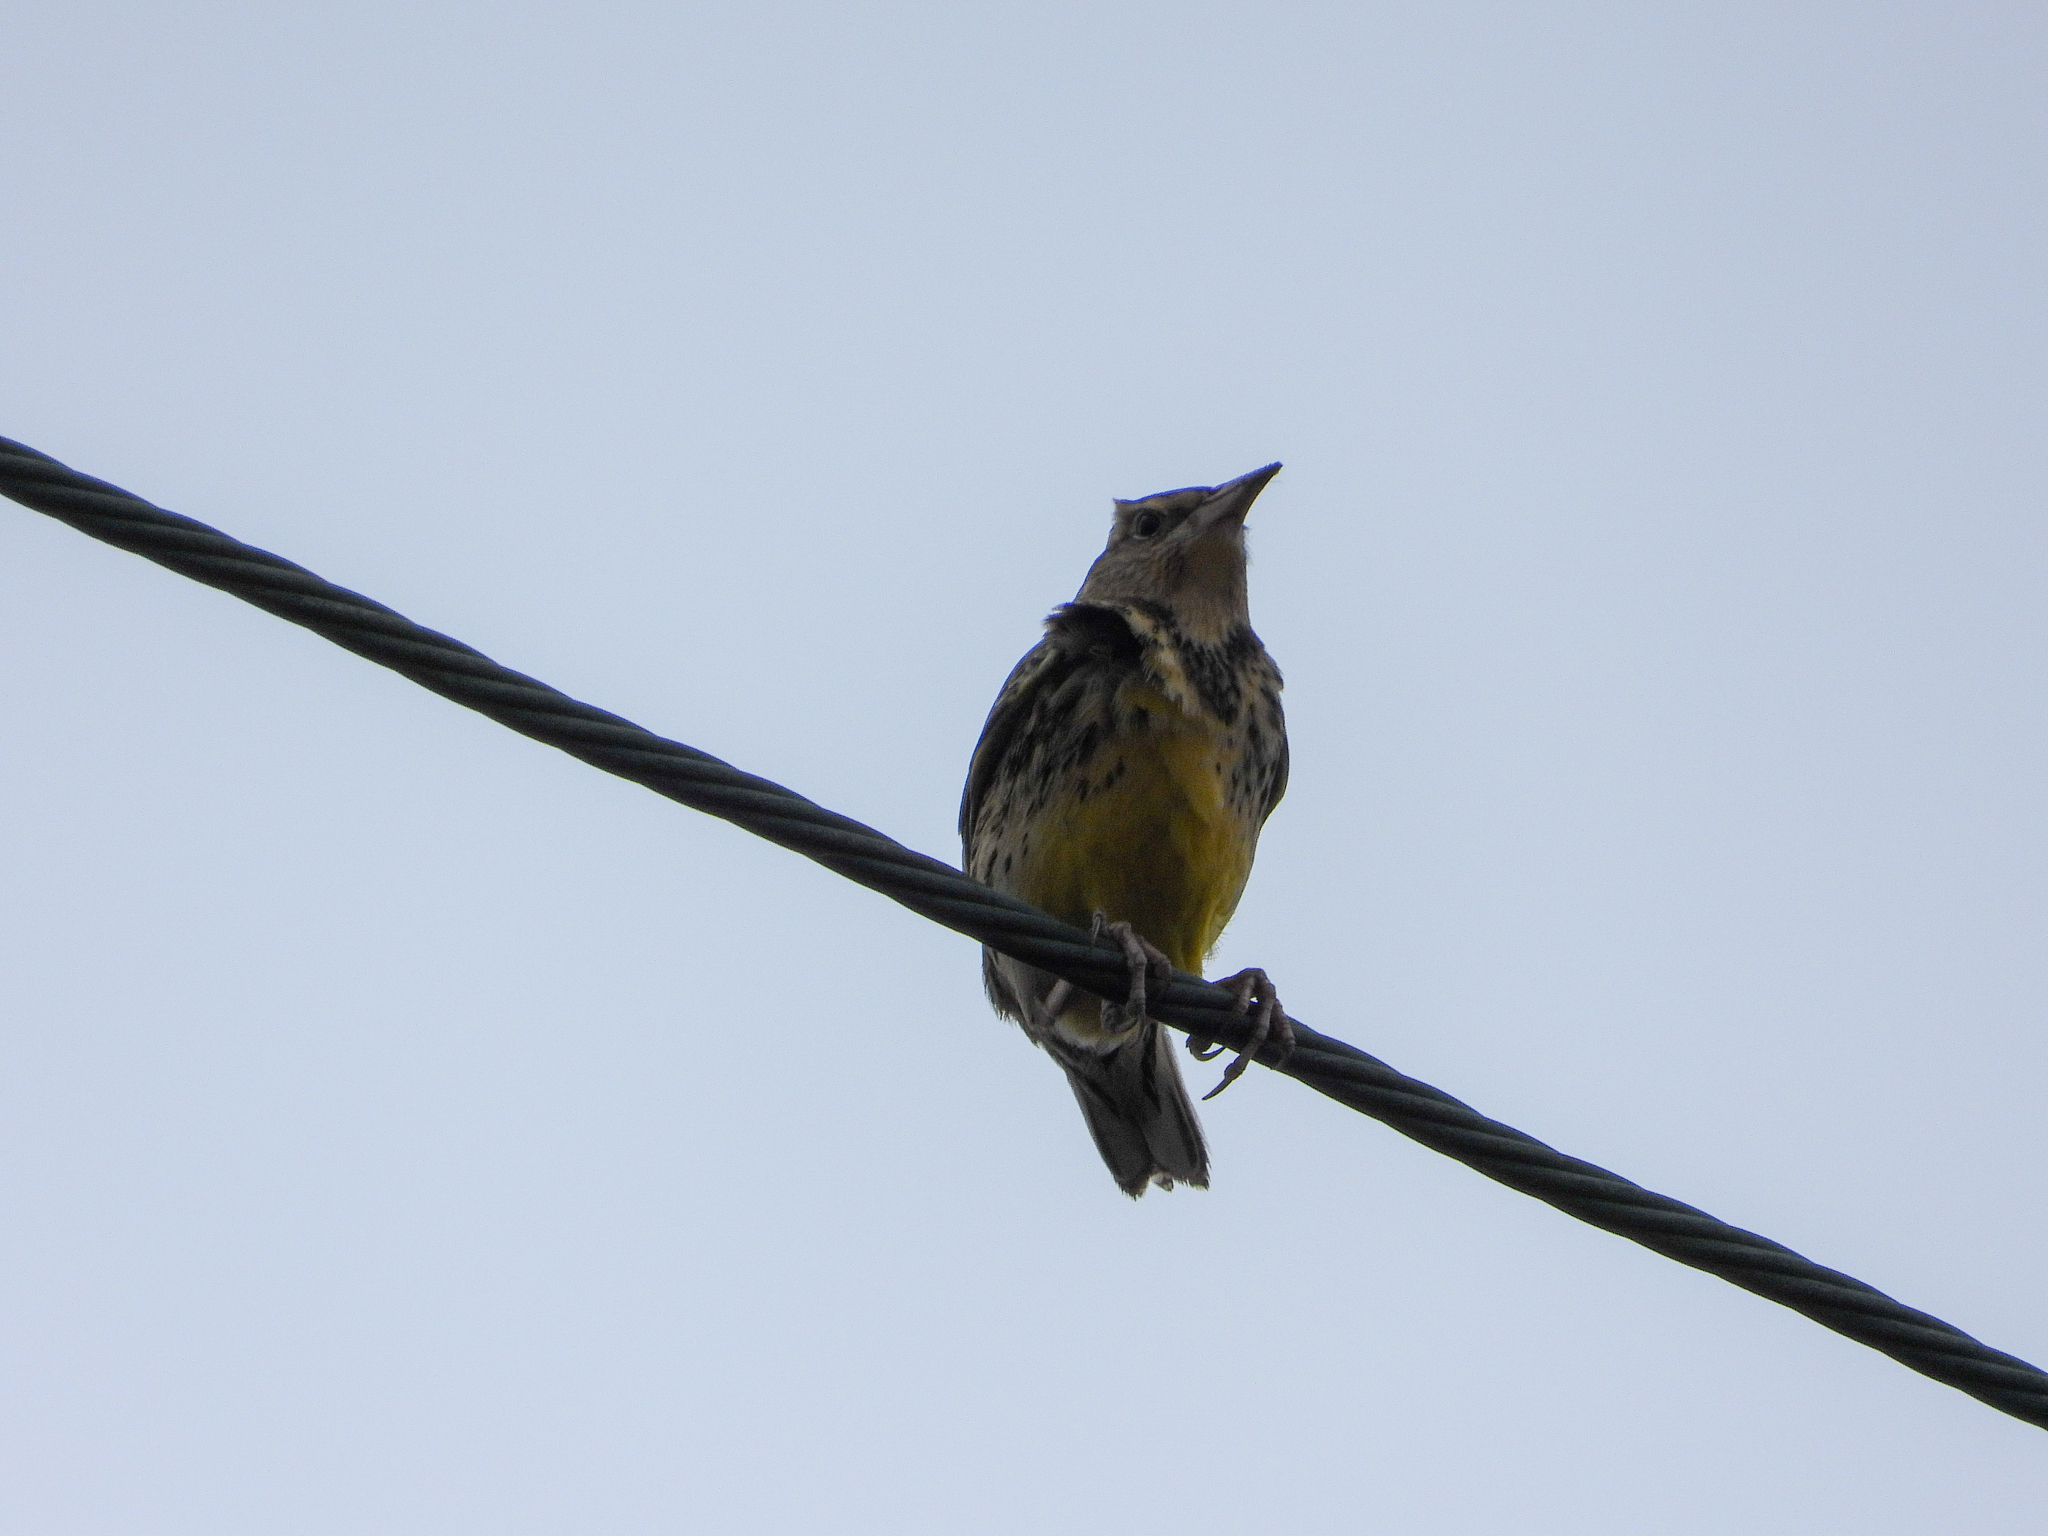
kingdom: Animalia
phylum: Chordata
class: Aves
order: Passeriformes
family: Icteridae
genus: Sturnella
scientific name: Sturnella neglecta
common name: Western meadowlark
